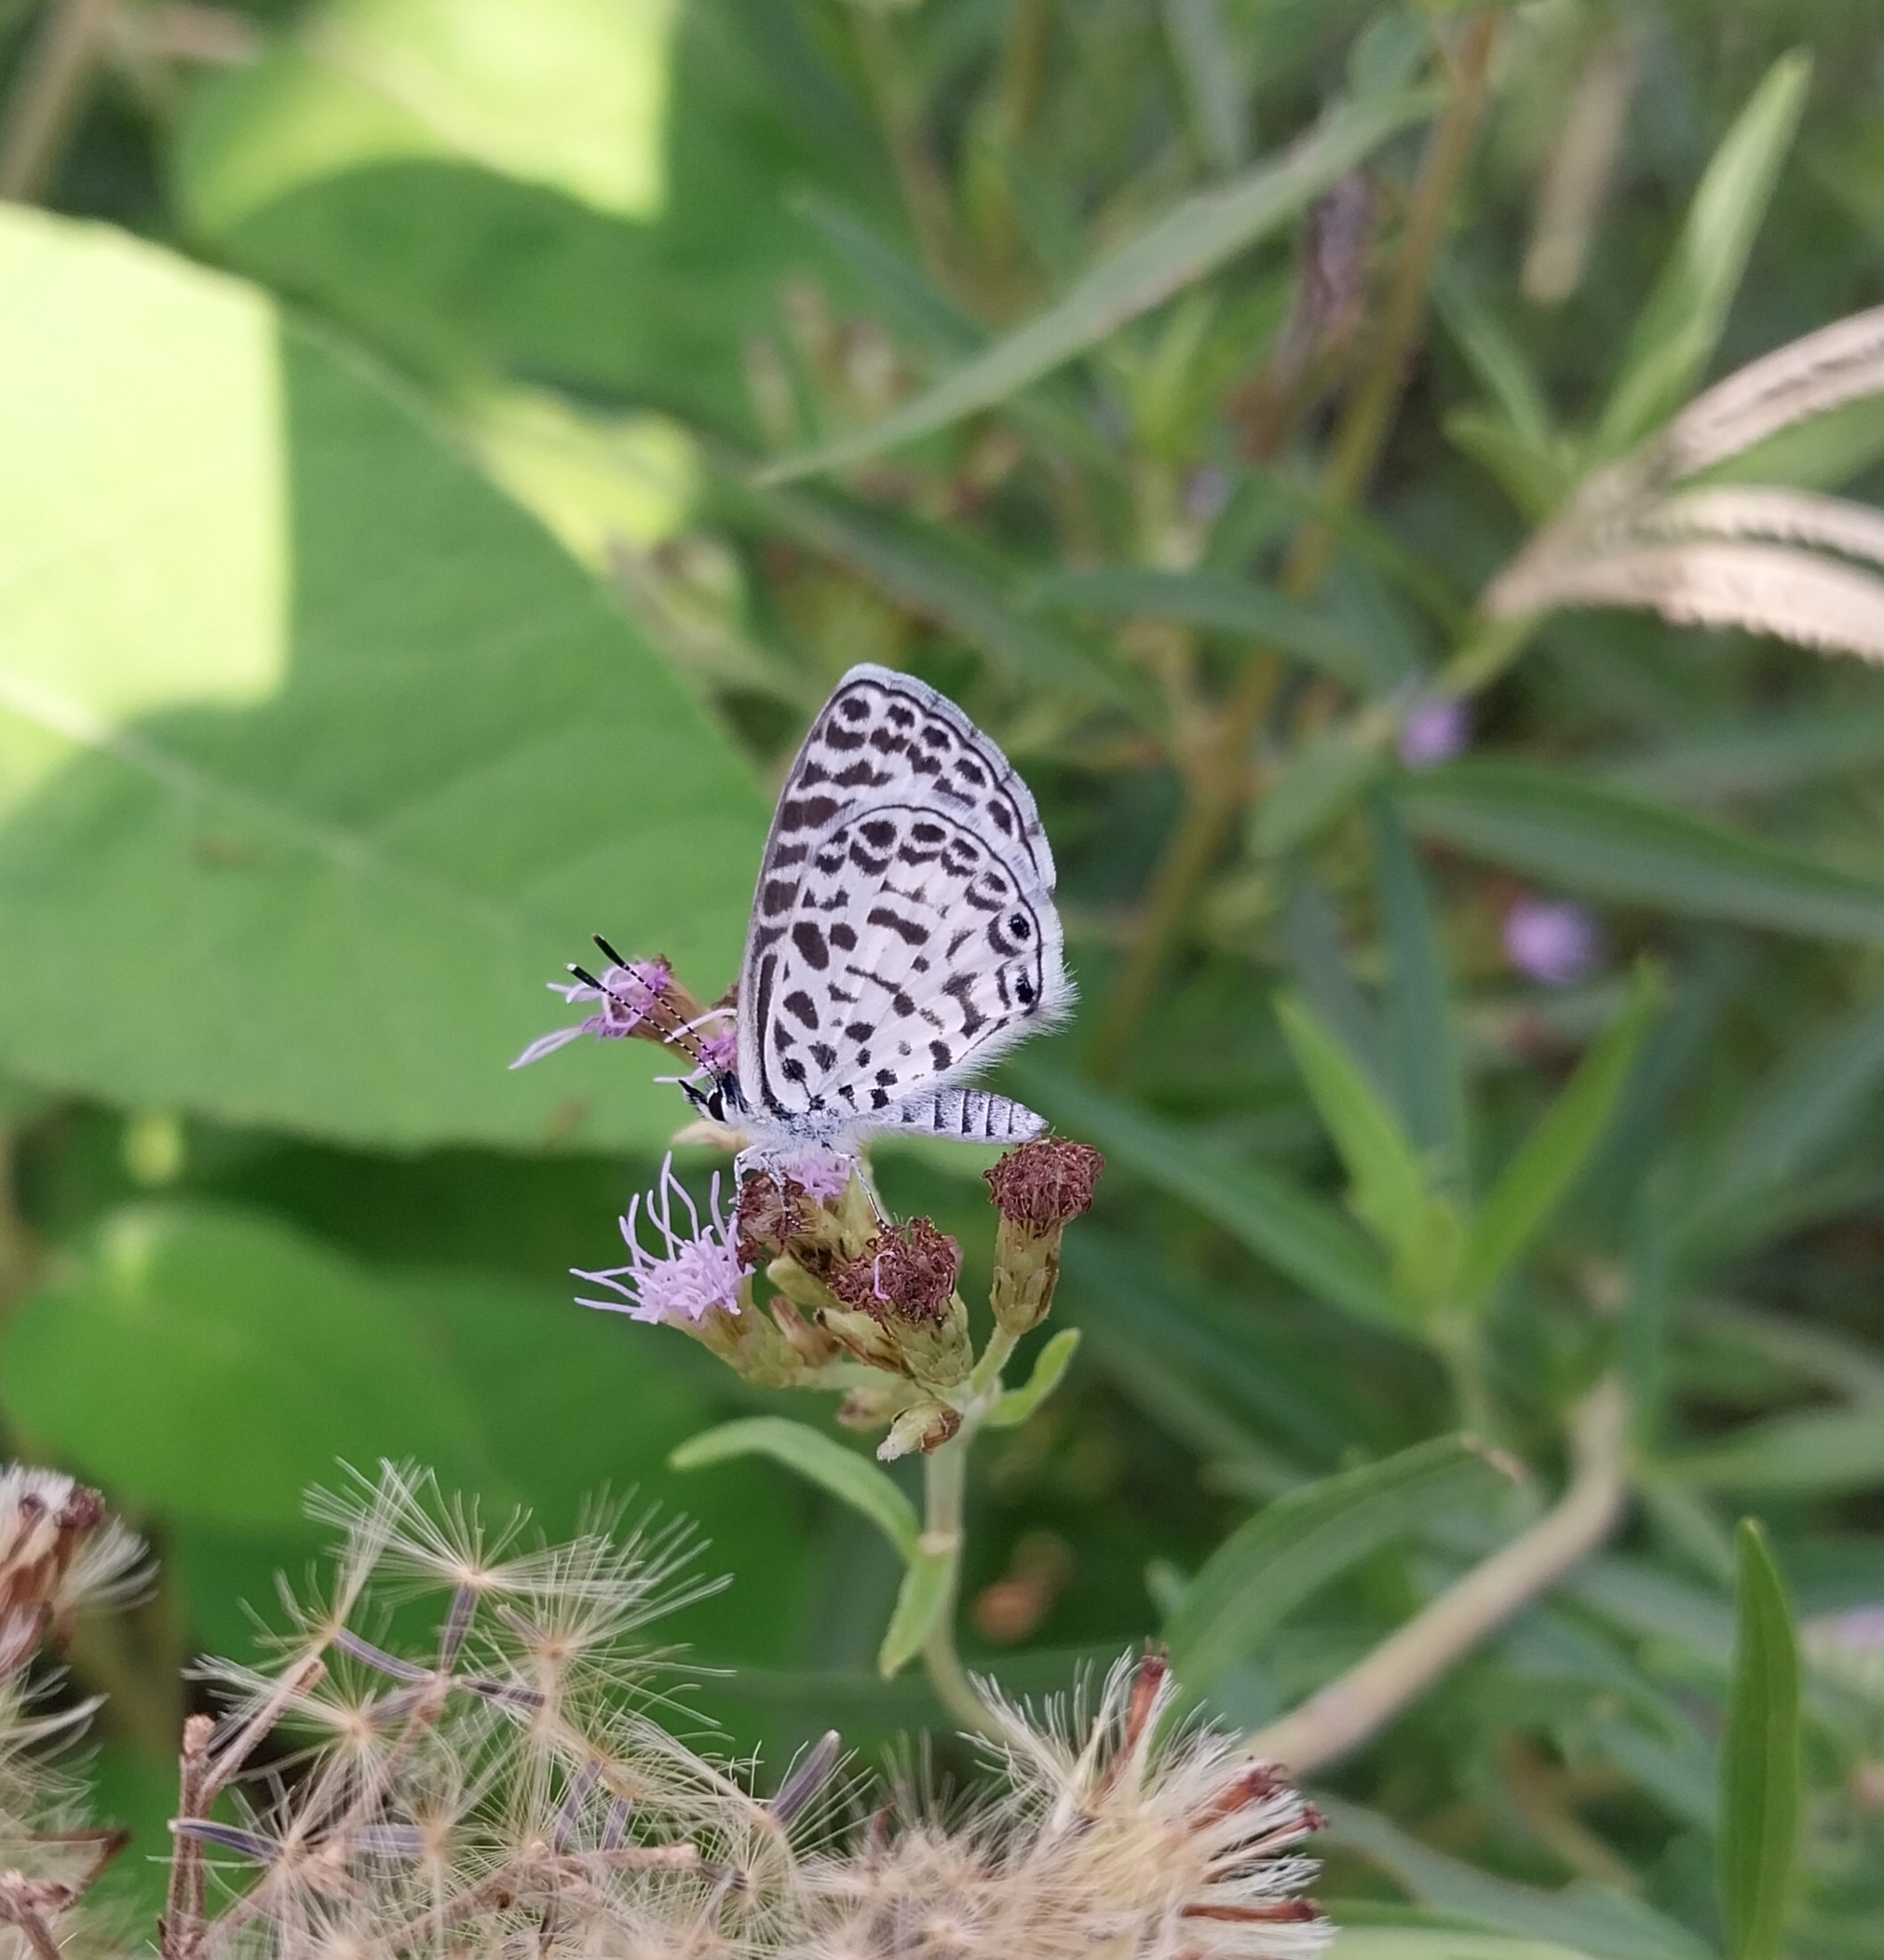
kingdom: Animalia
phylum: Arthropoda
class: Insecta
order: Lepidoptera
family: Lycaenidae
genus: Leptotes
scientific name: Leptotes cassius
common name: Cassius blue
